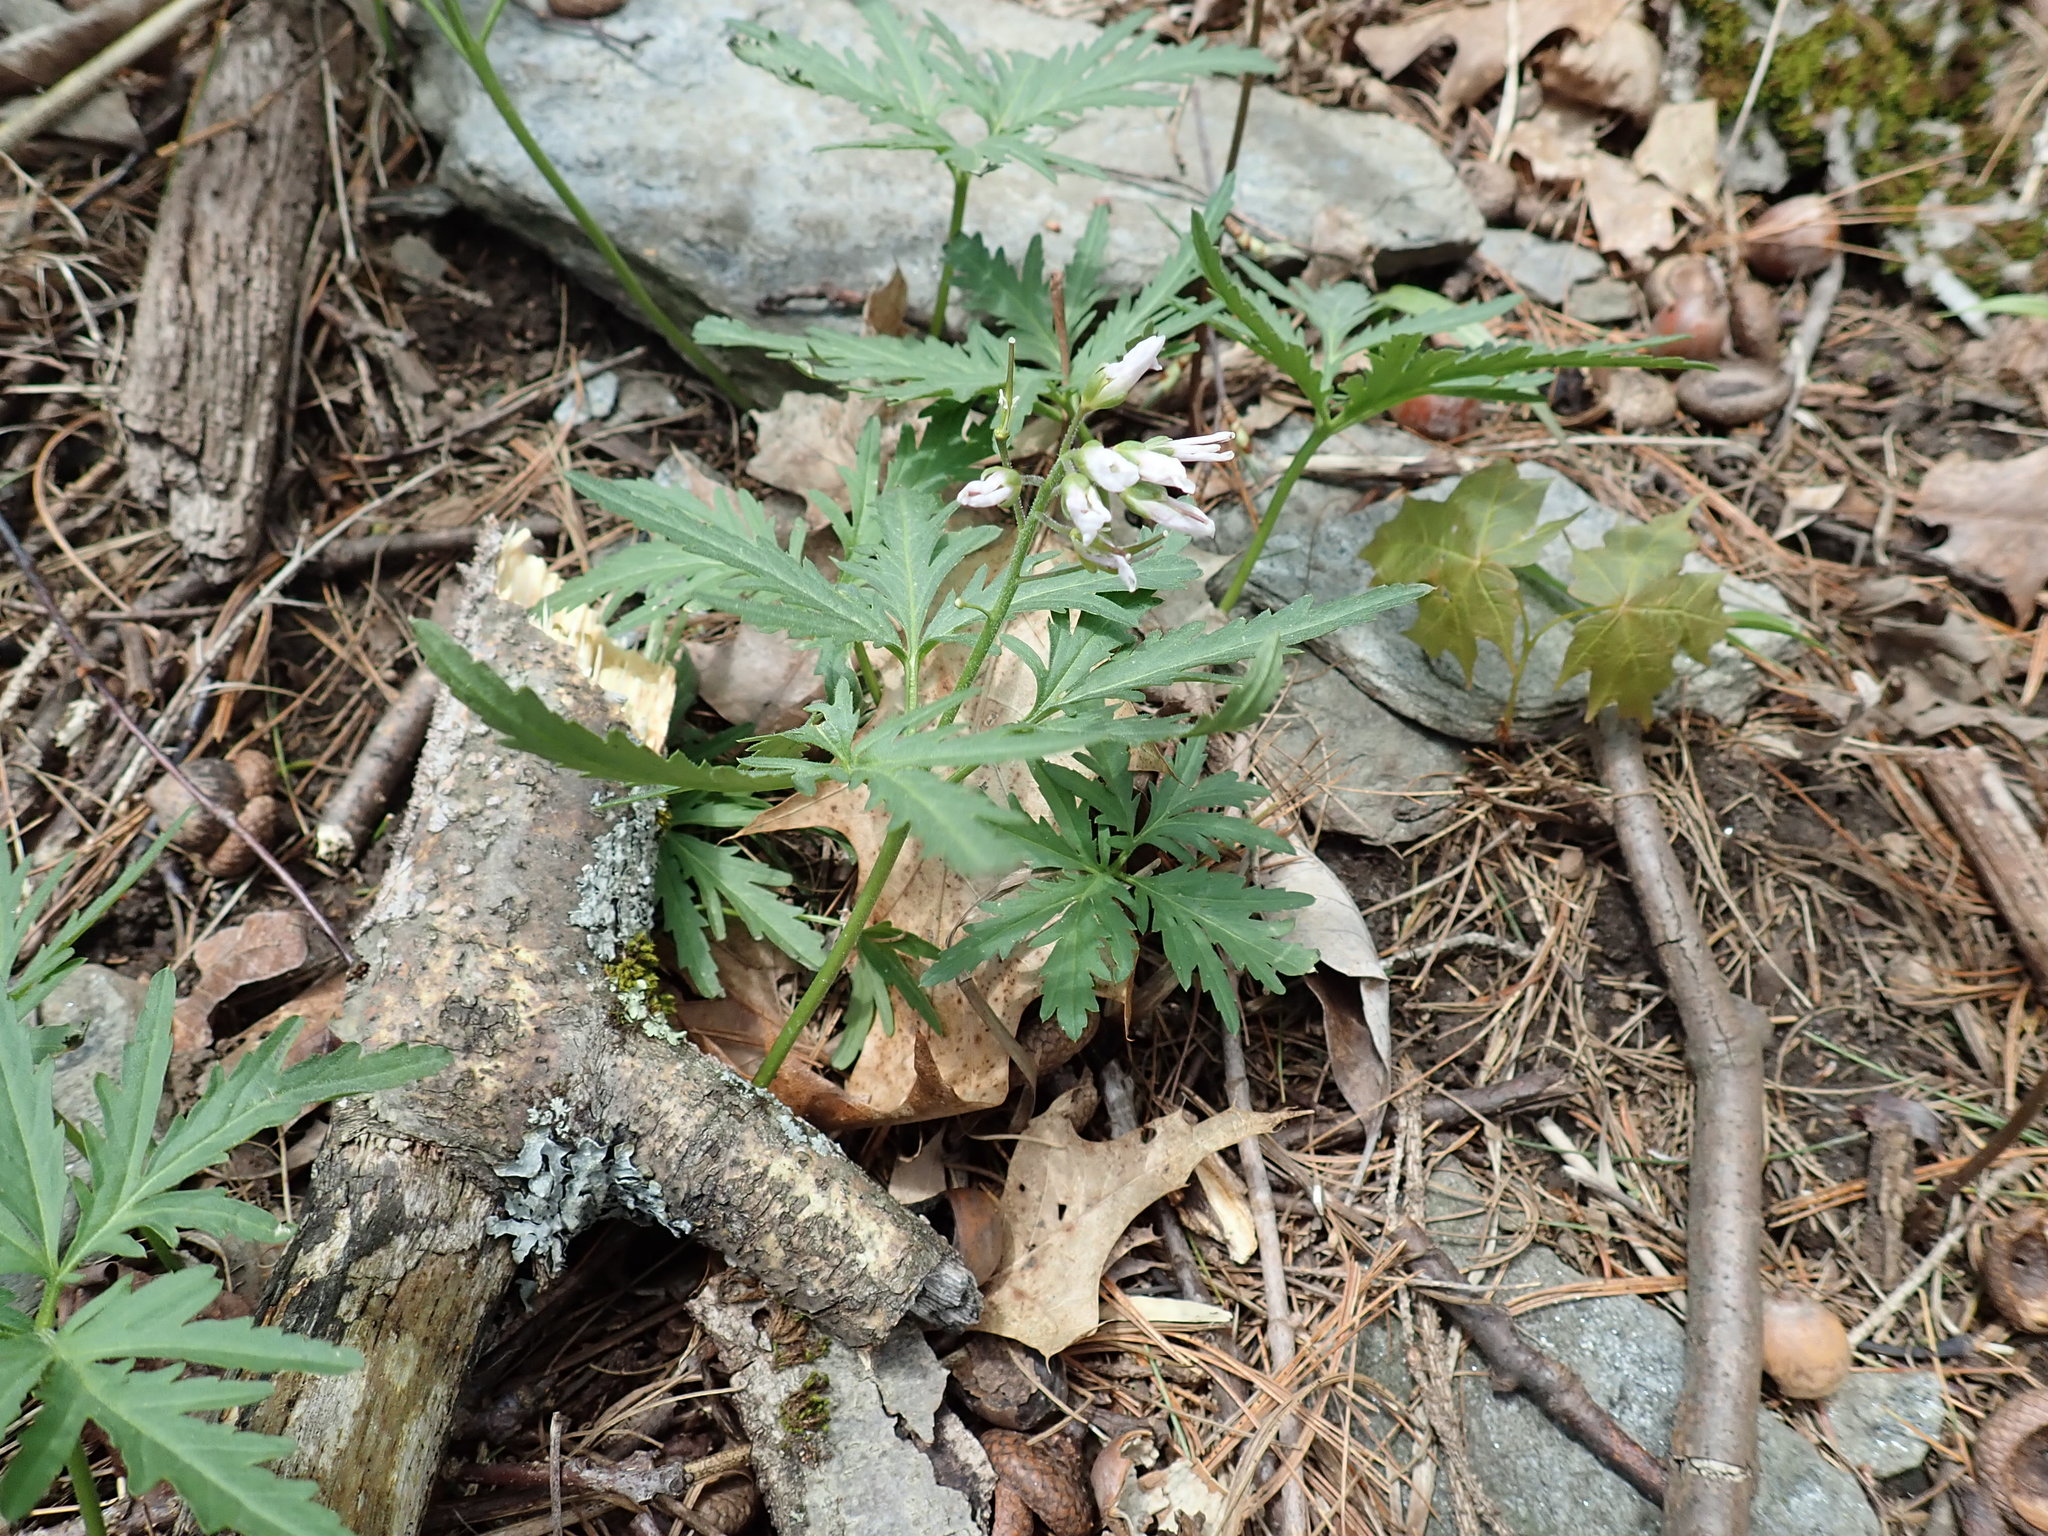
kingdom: Plantae
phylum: Tracheophyta
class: Magnoliopsida
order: Brassicales
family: Brassicaceae
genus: Cardamine
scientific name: Cardamine concatenata
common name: Cut-leaf toothcup
